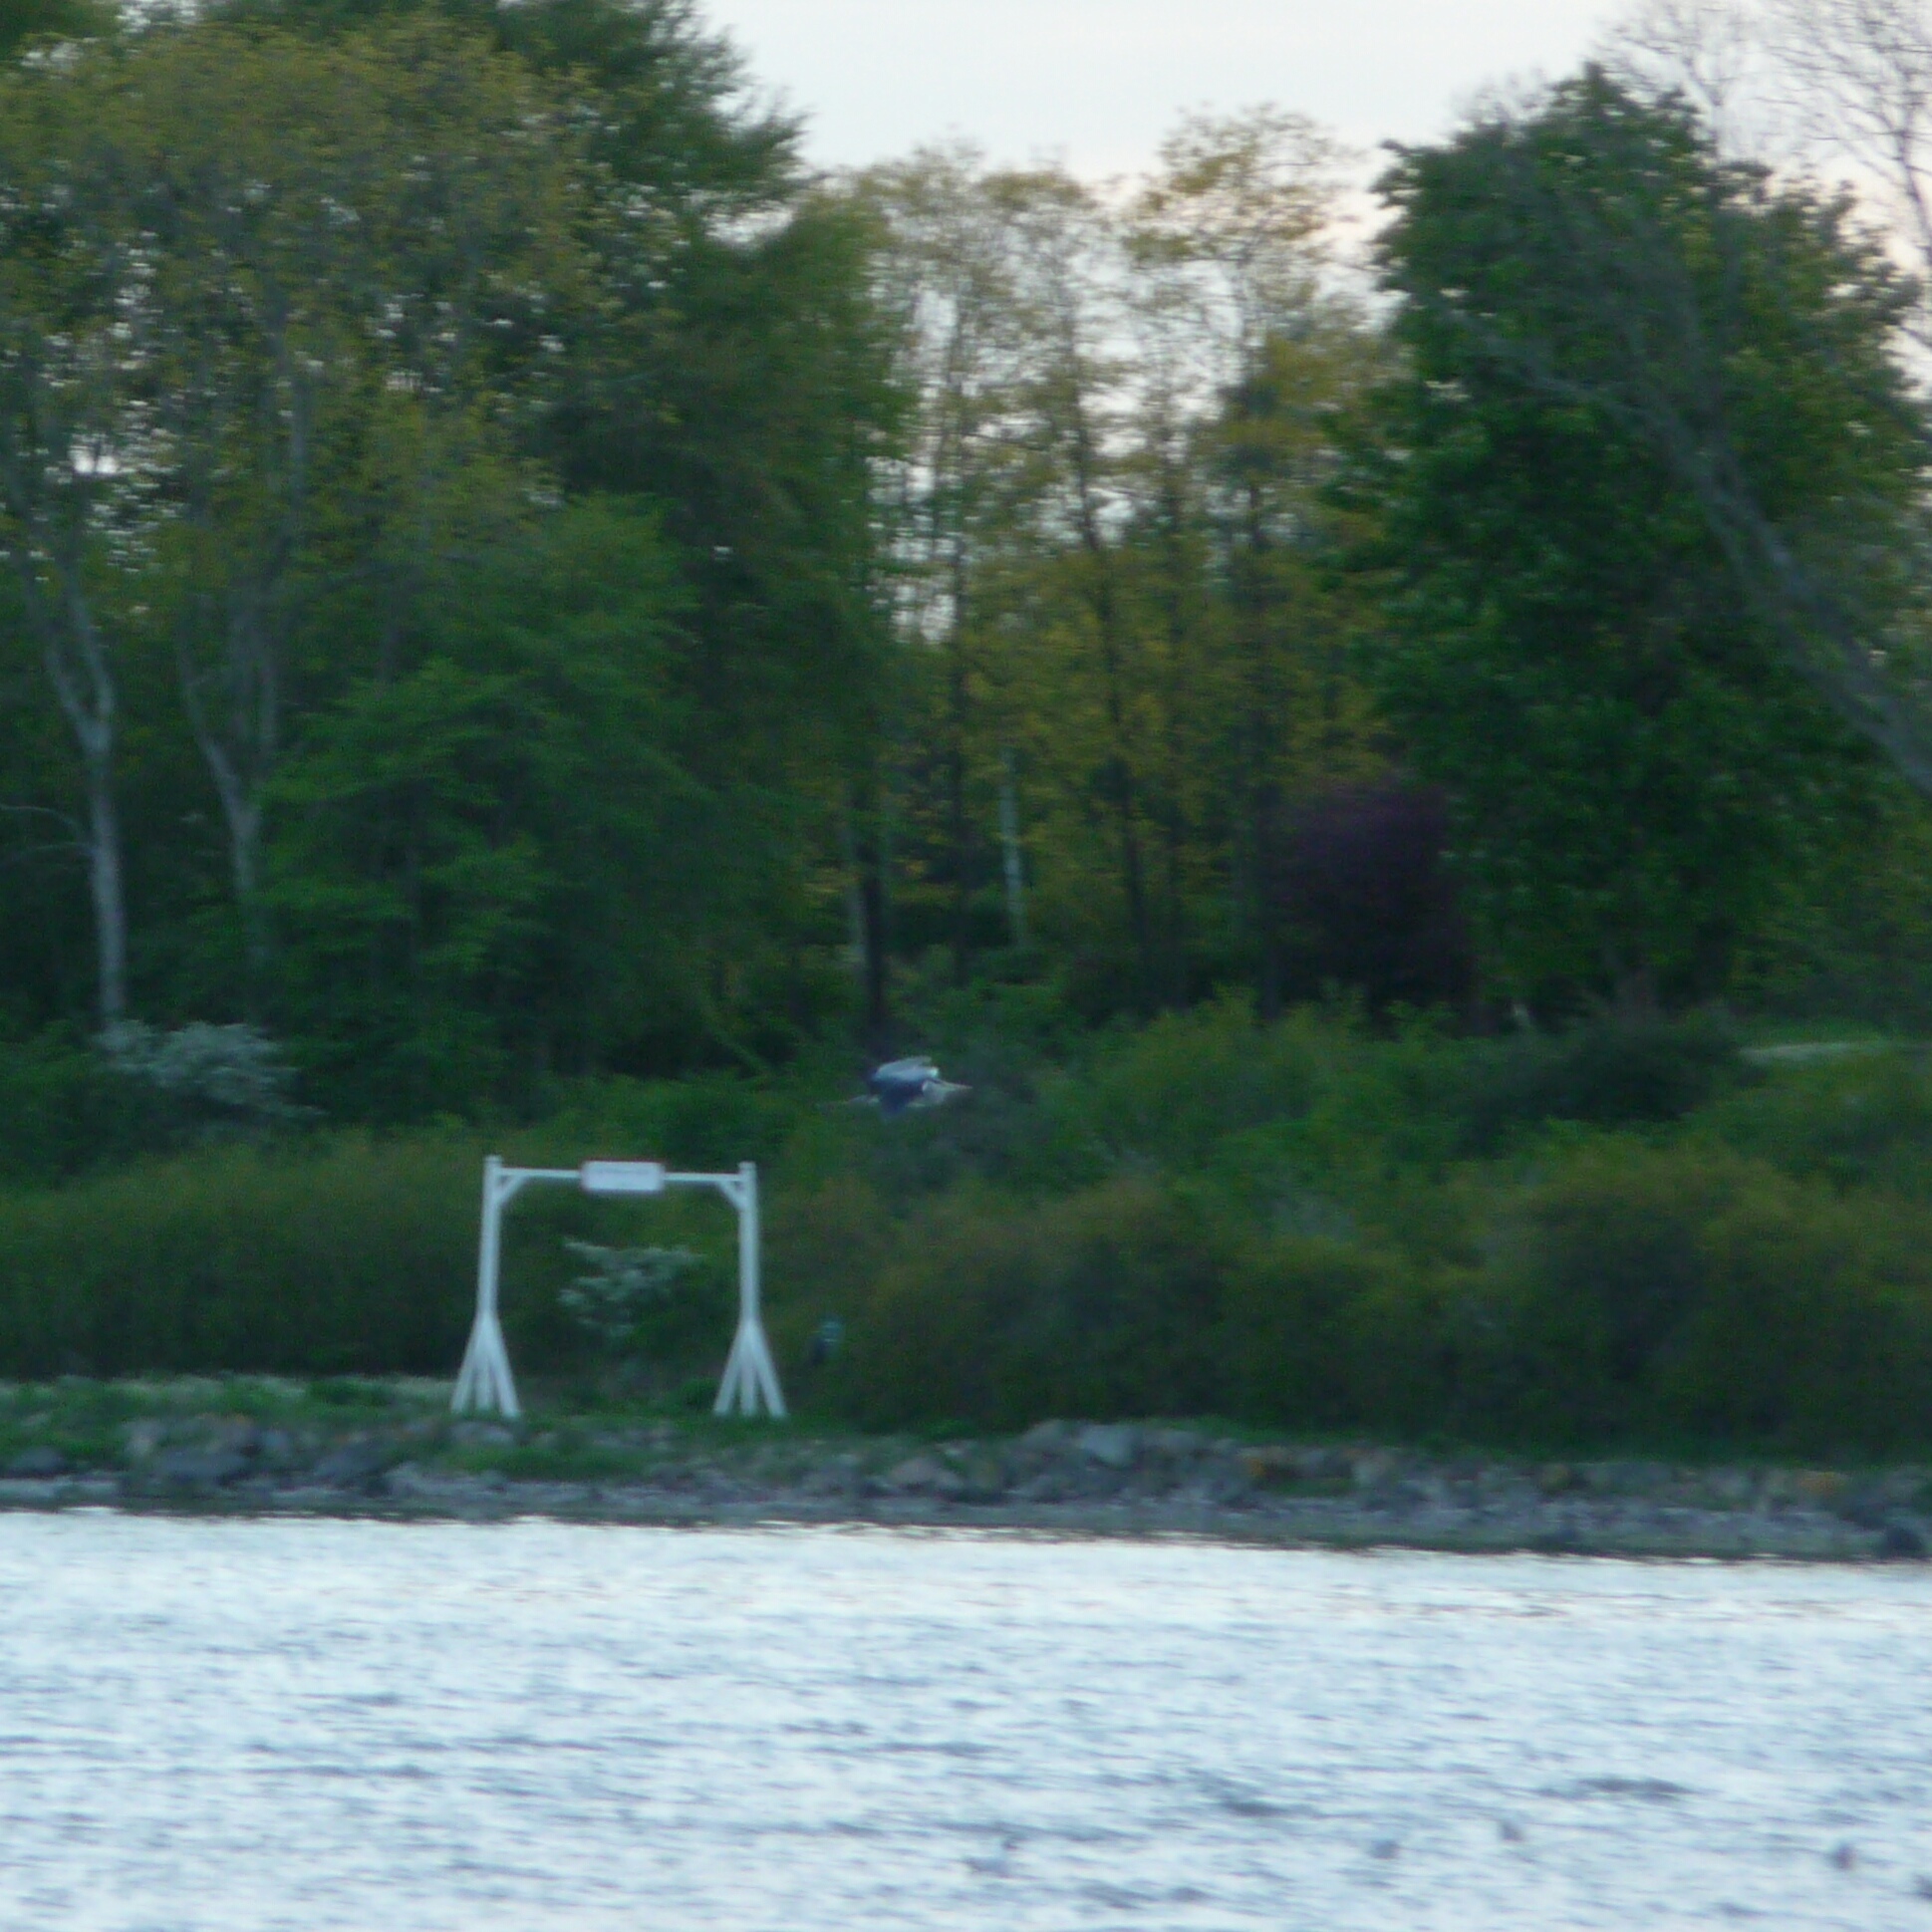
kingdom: Animalia
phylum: Chordata
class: Aves
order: Pelecaniformes
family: Ardeidae
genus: Ardea
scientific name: Ardea cinerea
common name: Grey heron
